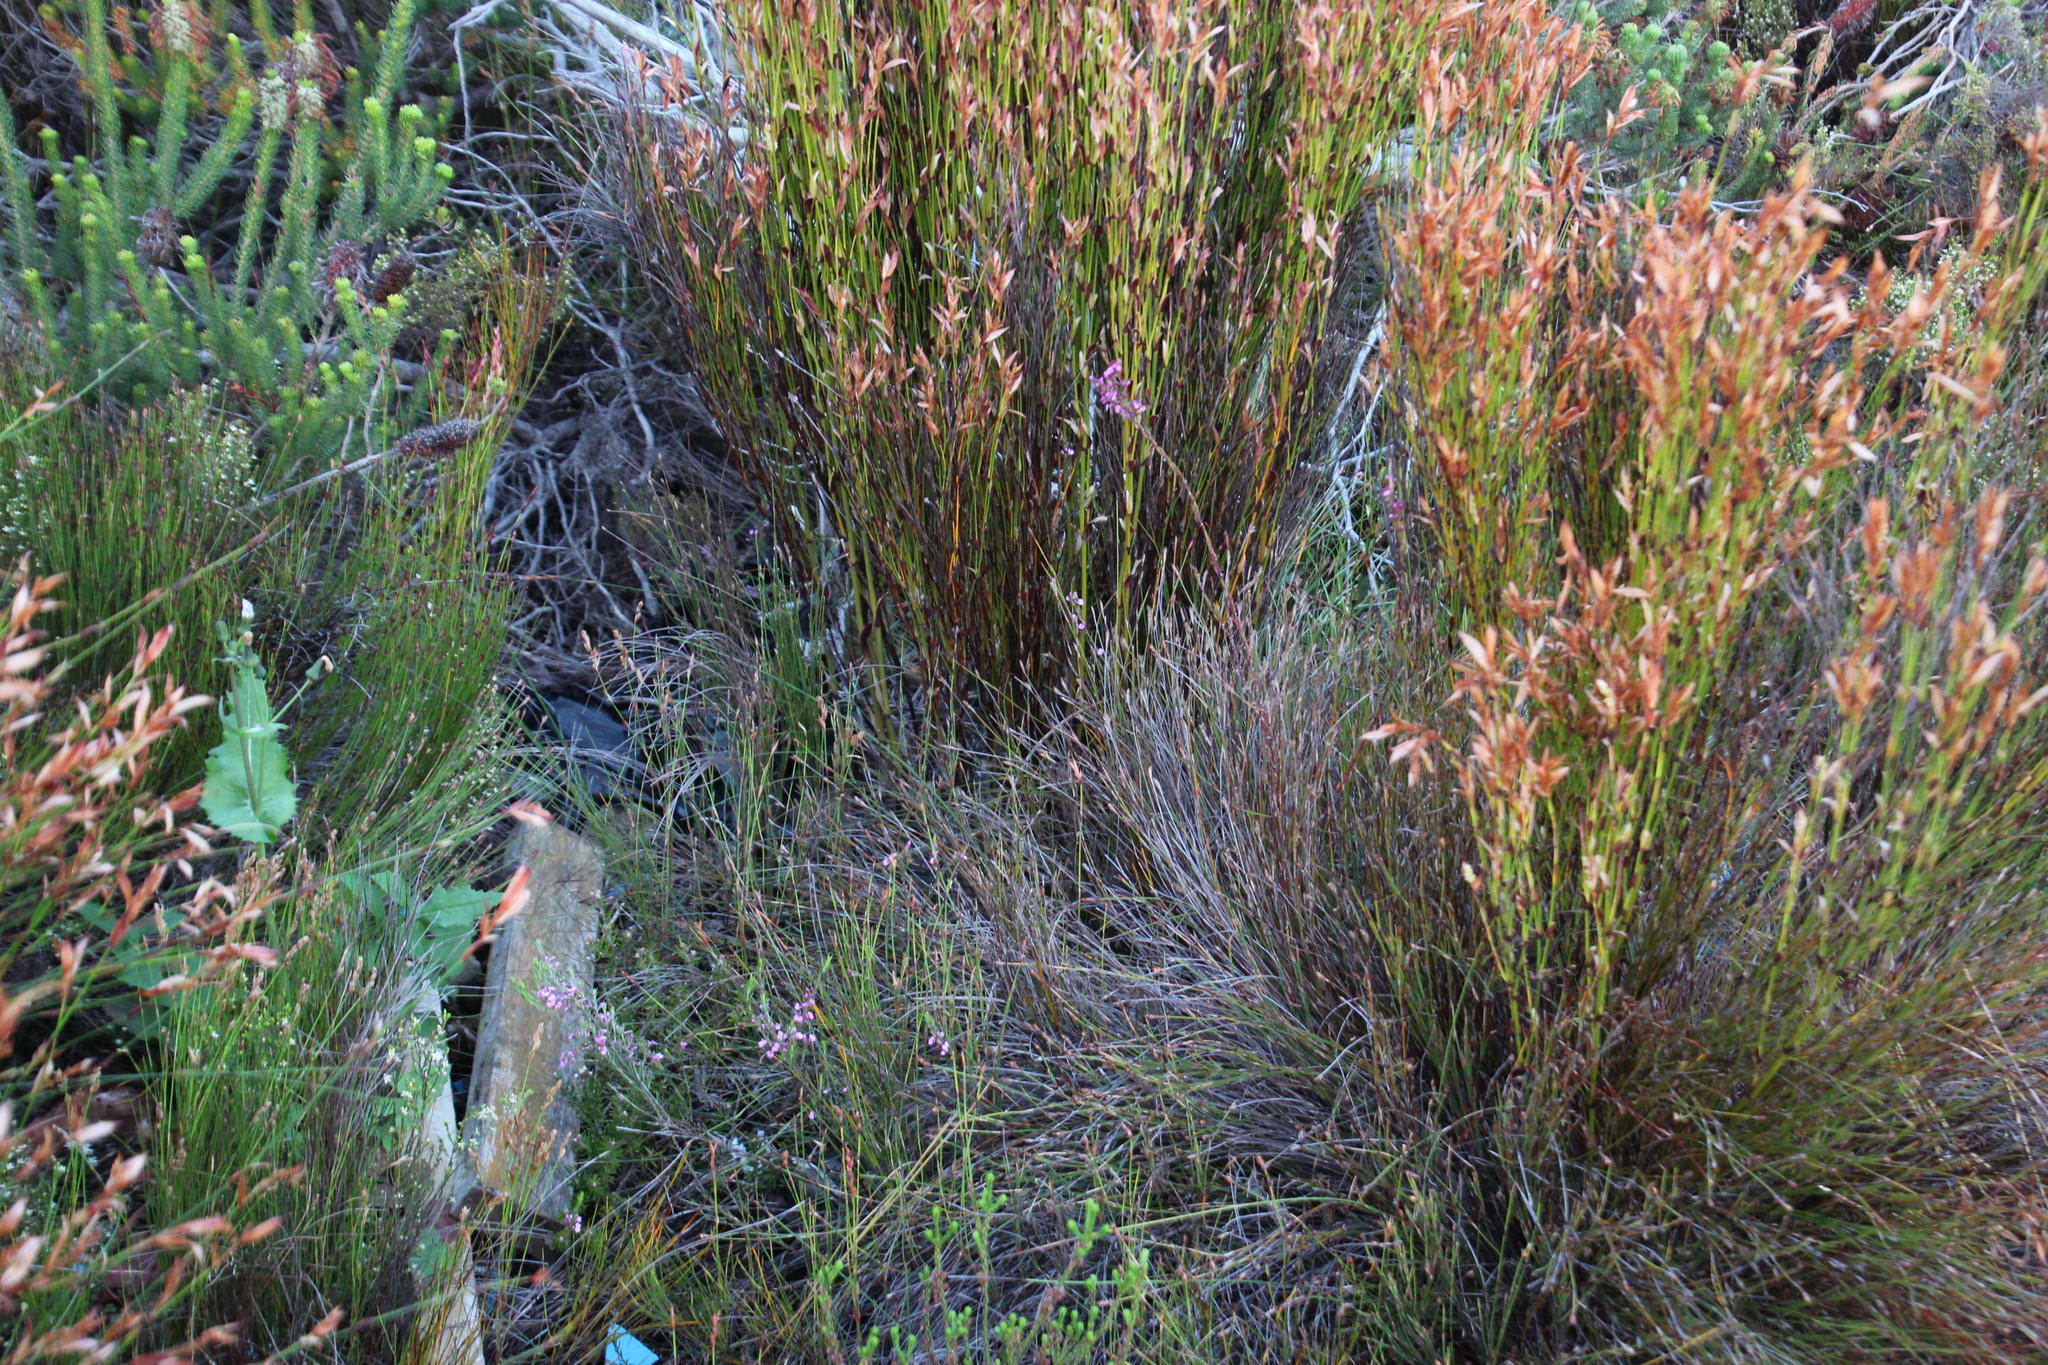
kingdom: Plantae
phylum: Tracheophyta
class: Liliopsida
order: Poales
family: Restionaceae
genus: Elegia
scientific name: Elegia muirii
